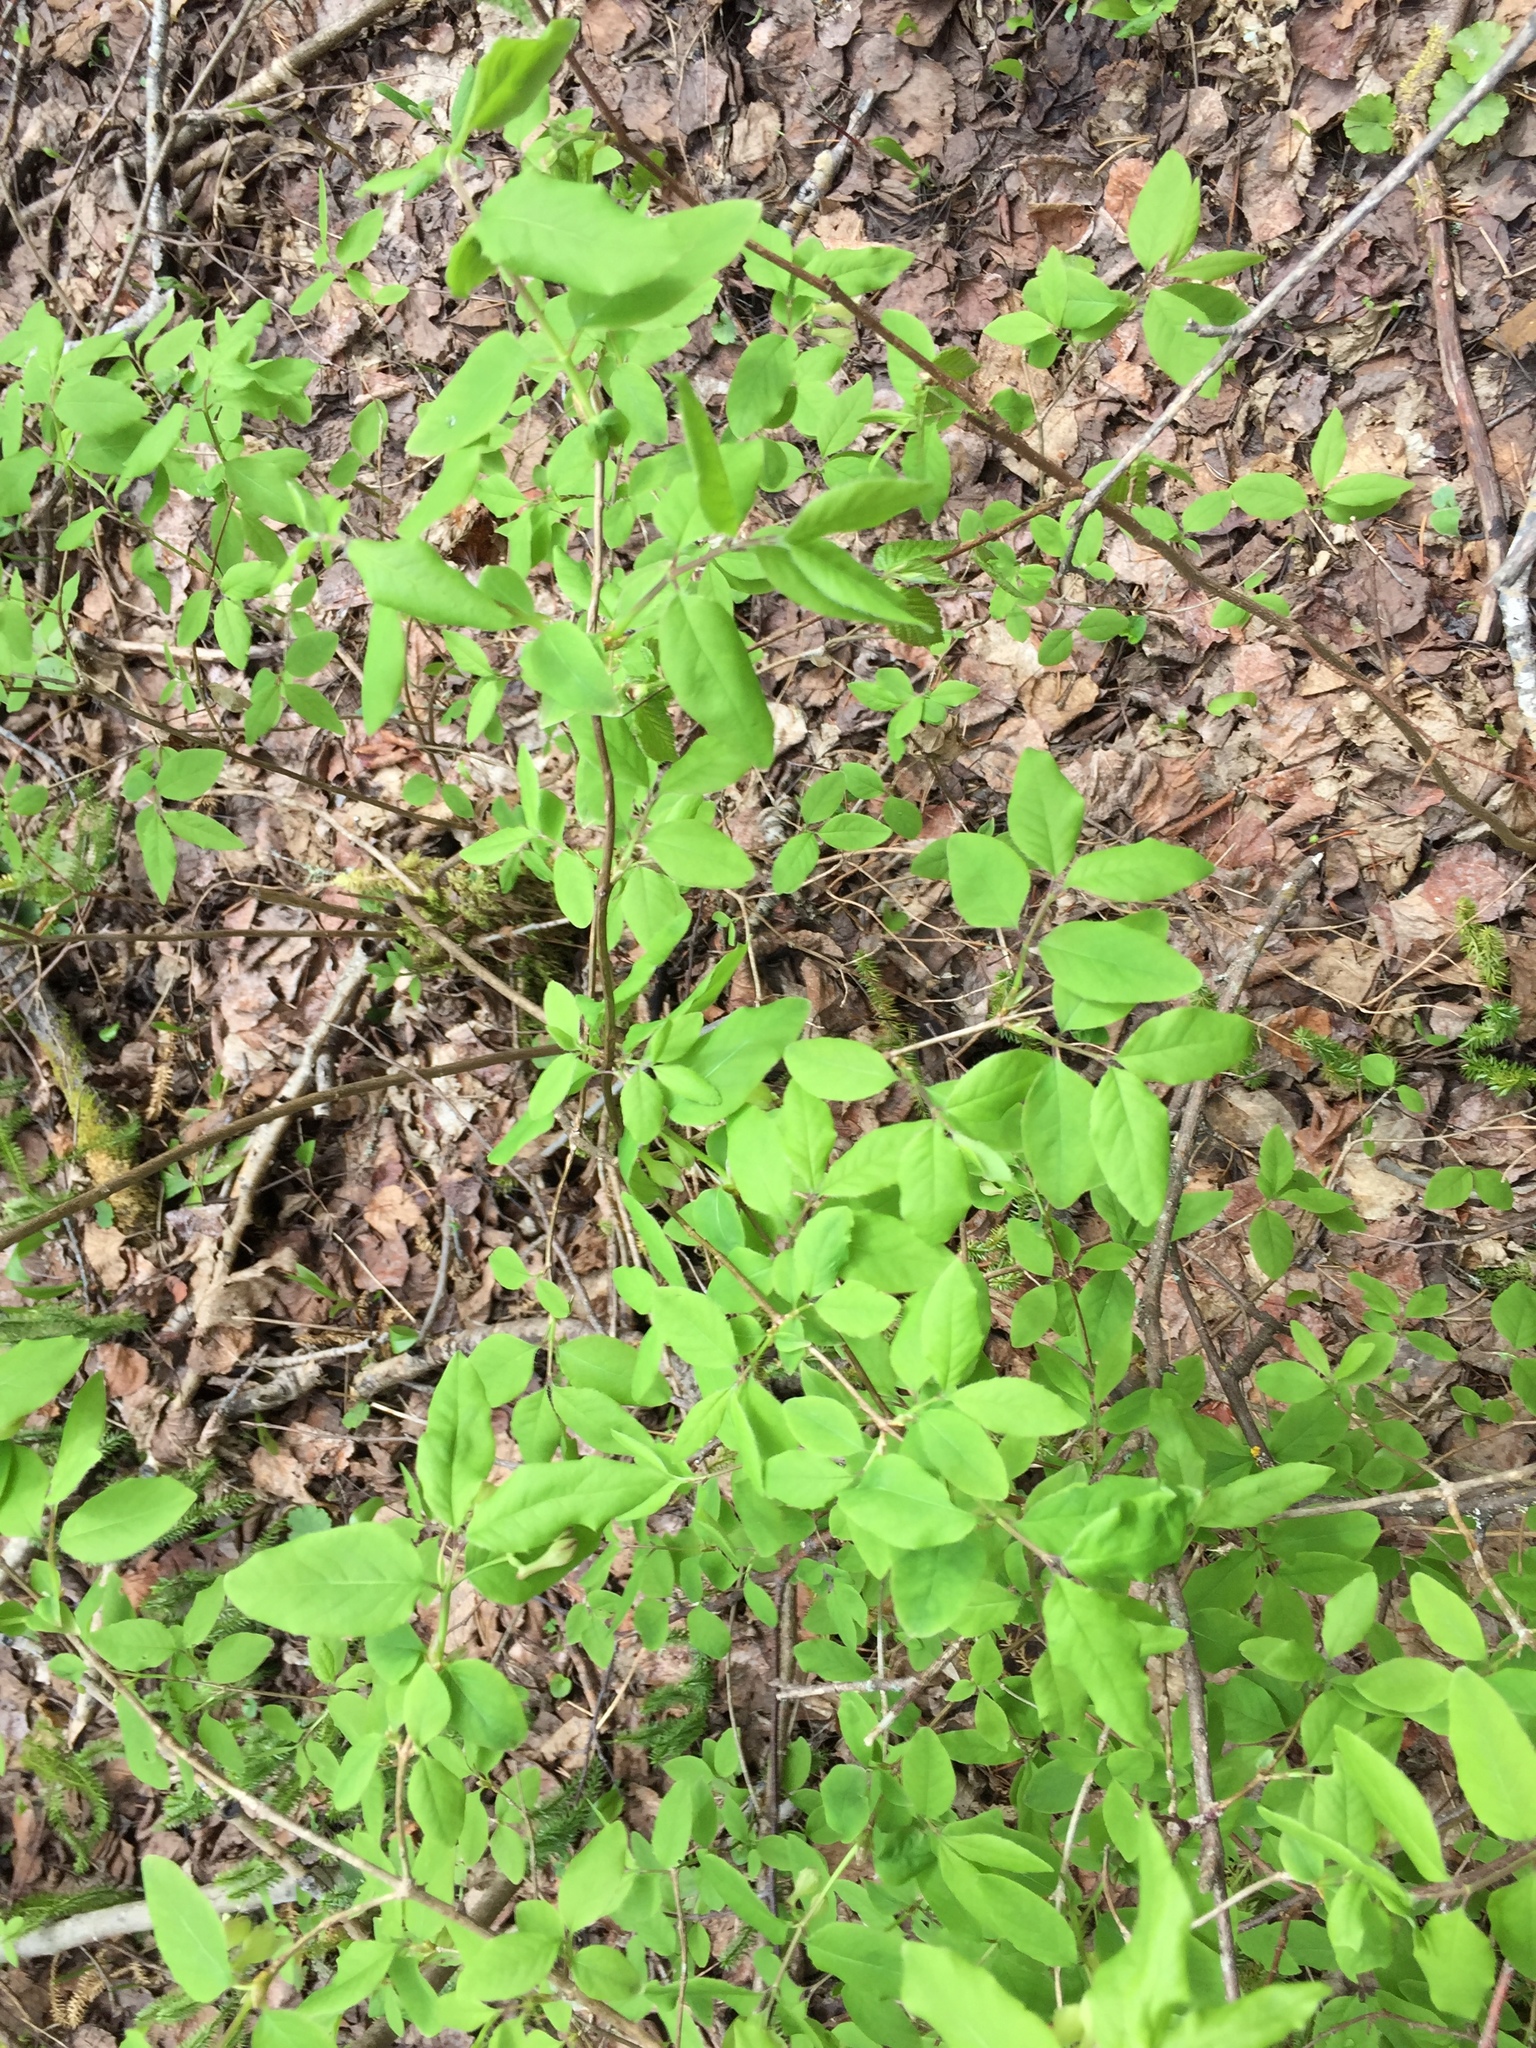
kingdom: Plantae
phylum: Tracheophyta
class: Magnoliopsida
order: Dipsacales
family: Caprifoliaceae
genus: Lonicera
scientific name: Lonicera canadensis
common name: American fly-honeysuckle
